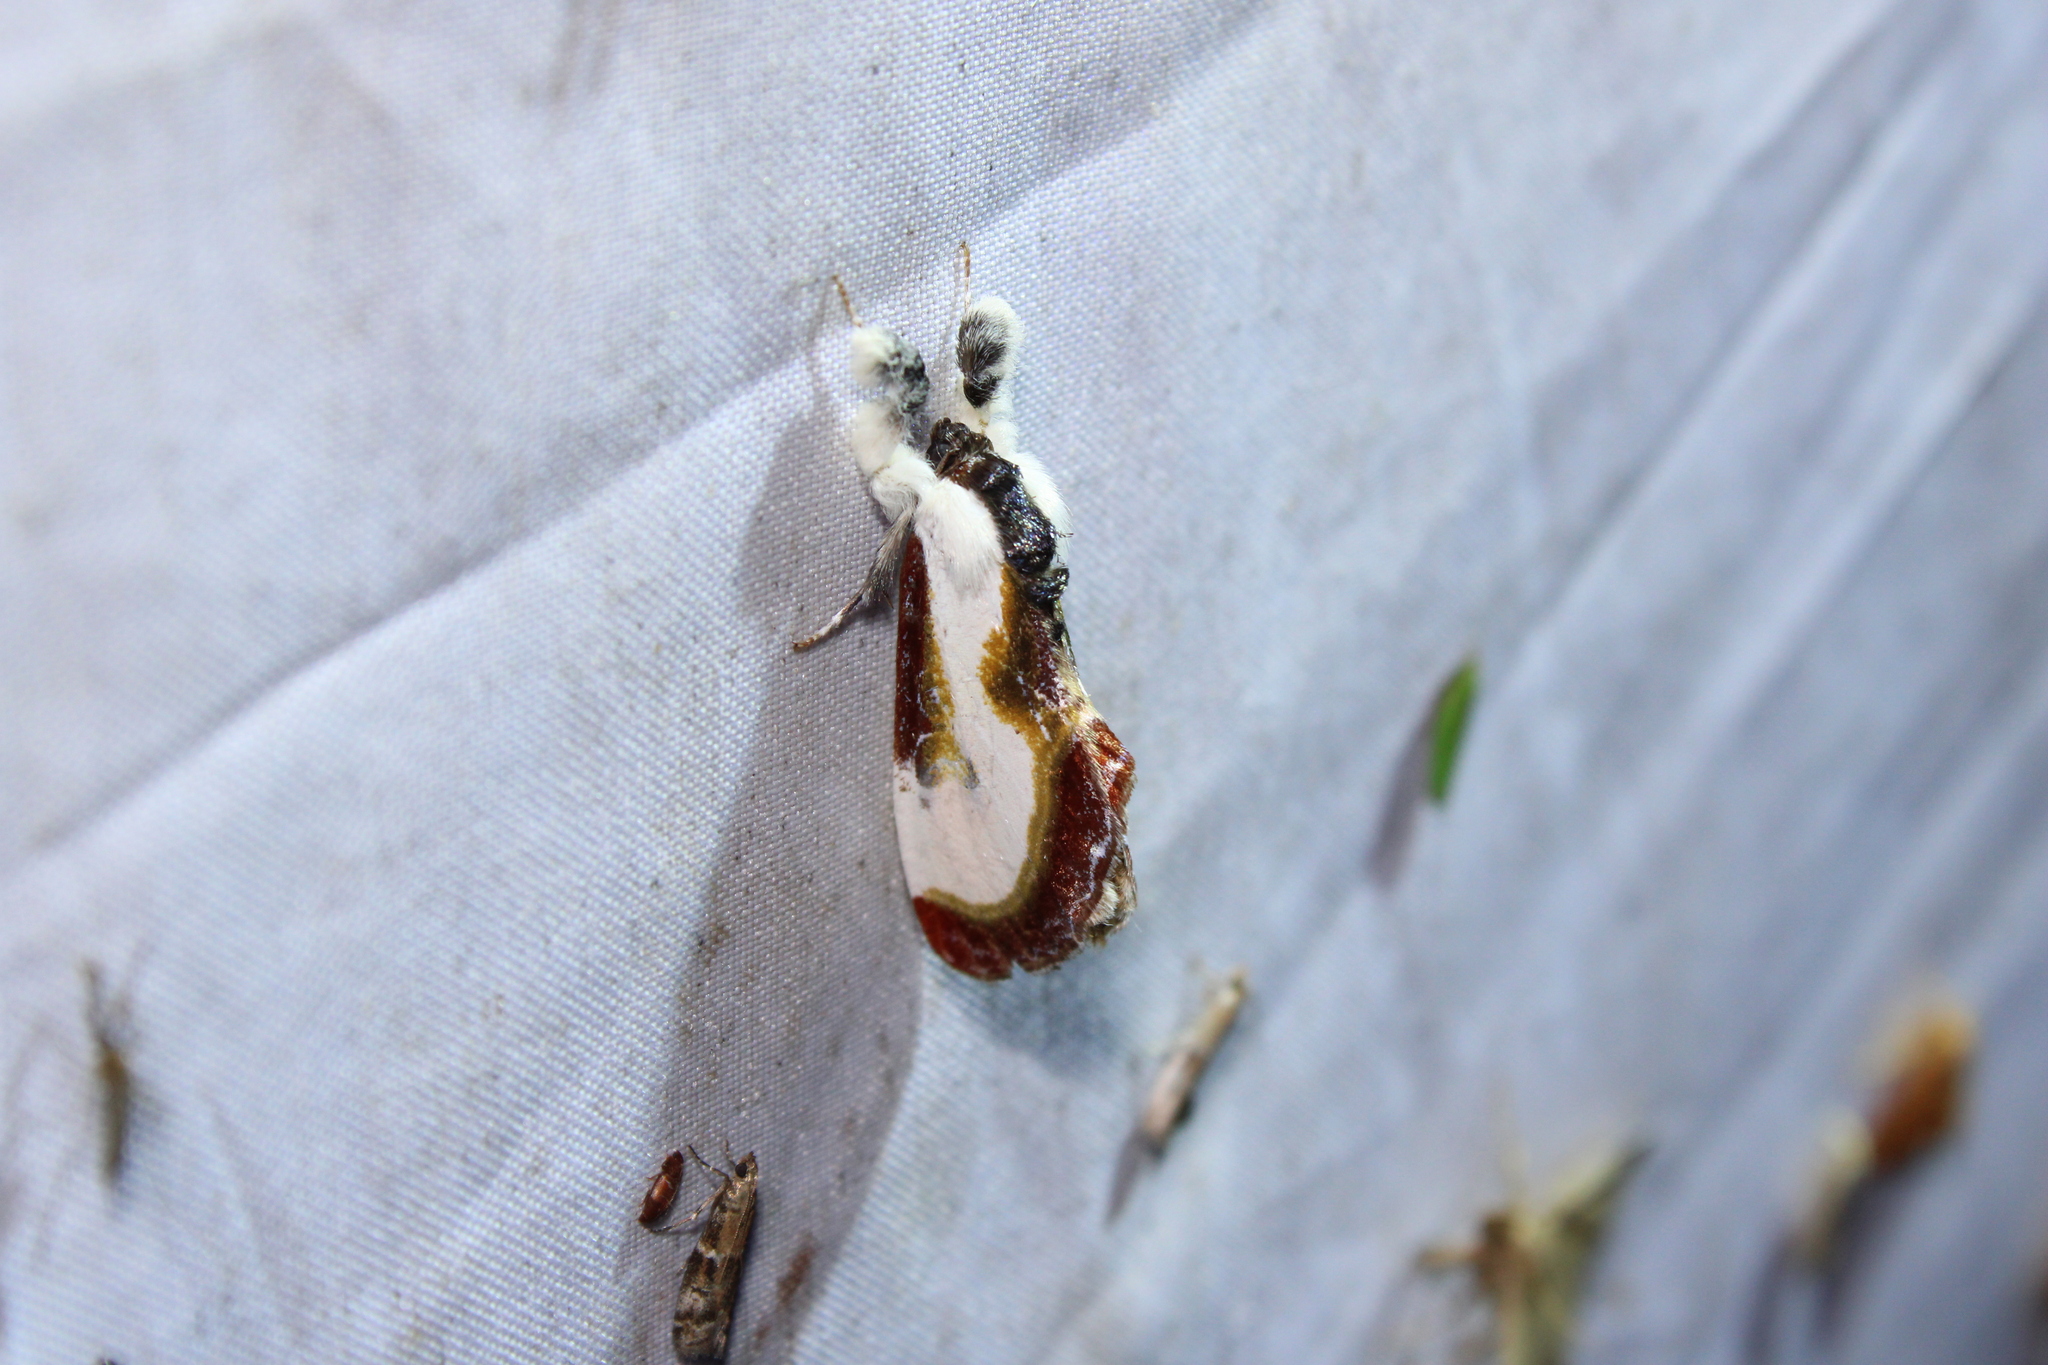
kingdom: Animalia
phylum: Arthropoda
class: Insecta
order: Lepidoptera
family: Noctuidae
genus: Eudryas
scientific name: Eudryas grata
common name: Beautiful wood-nymph
